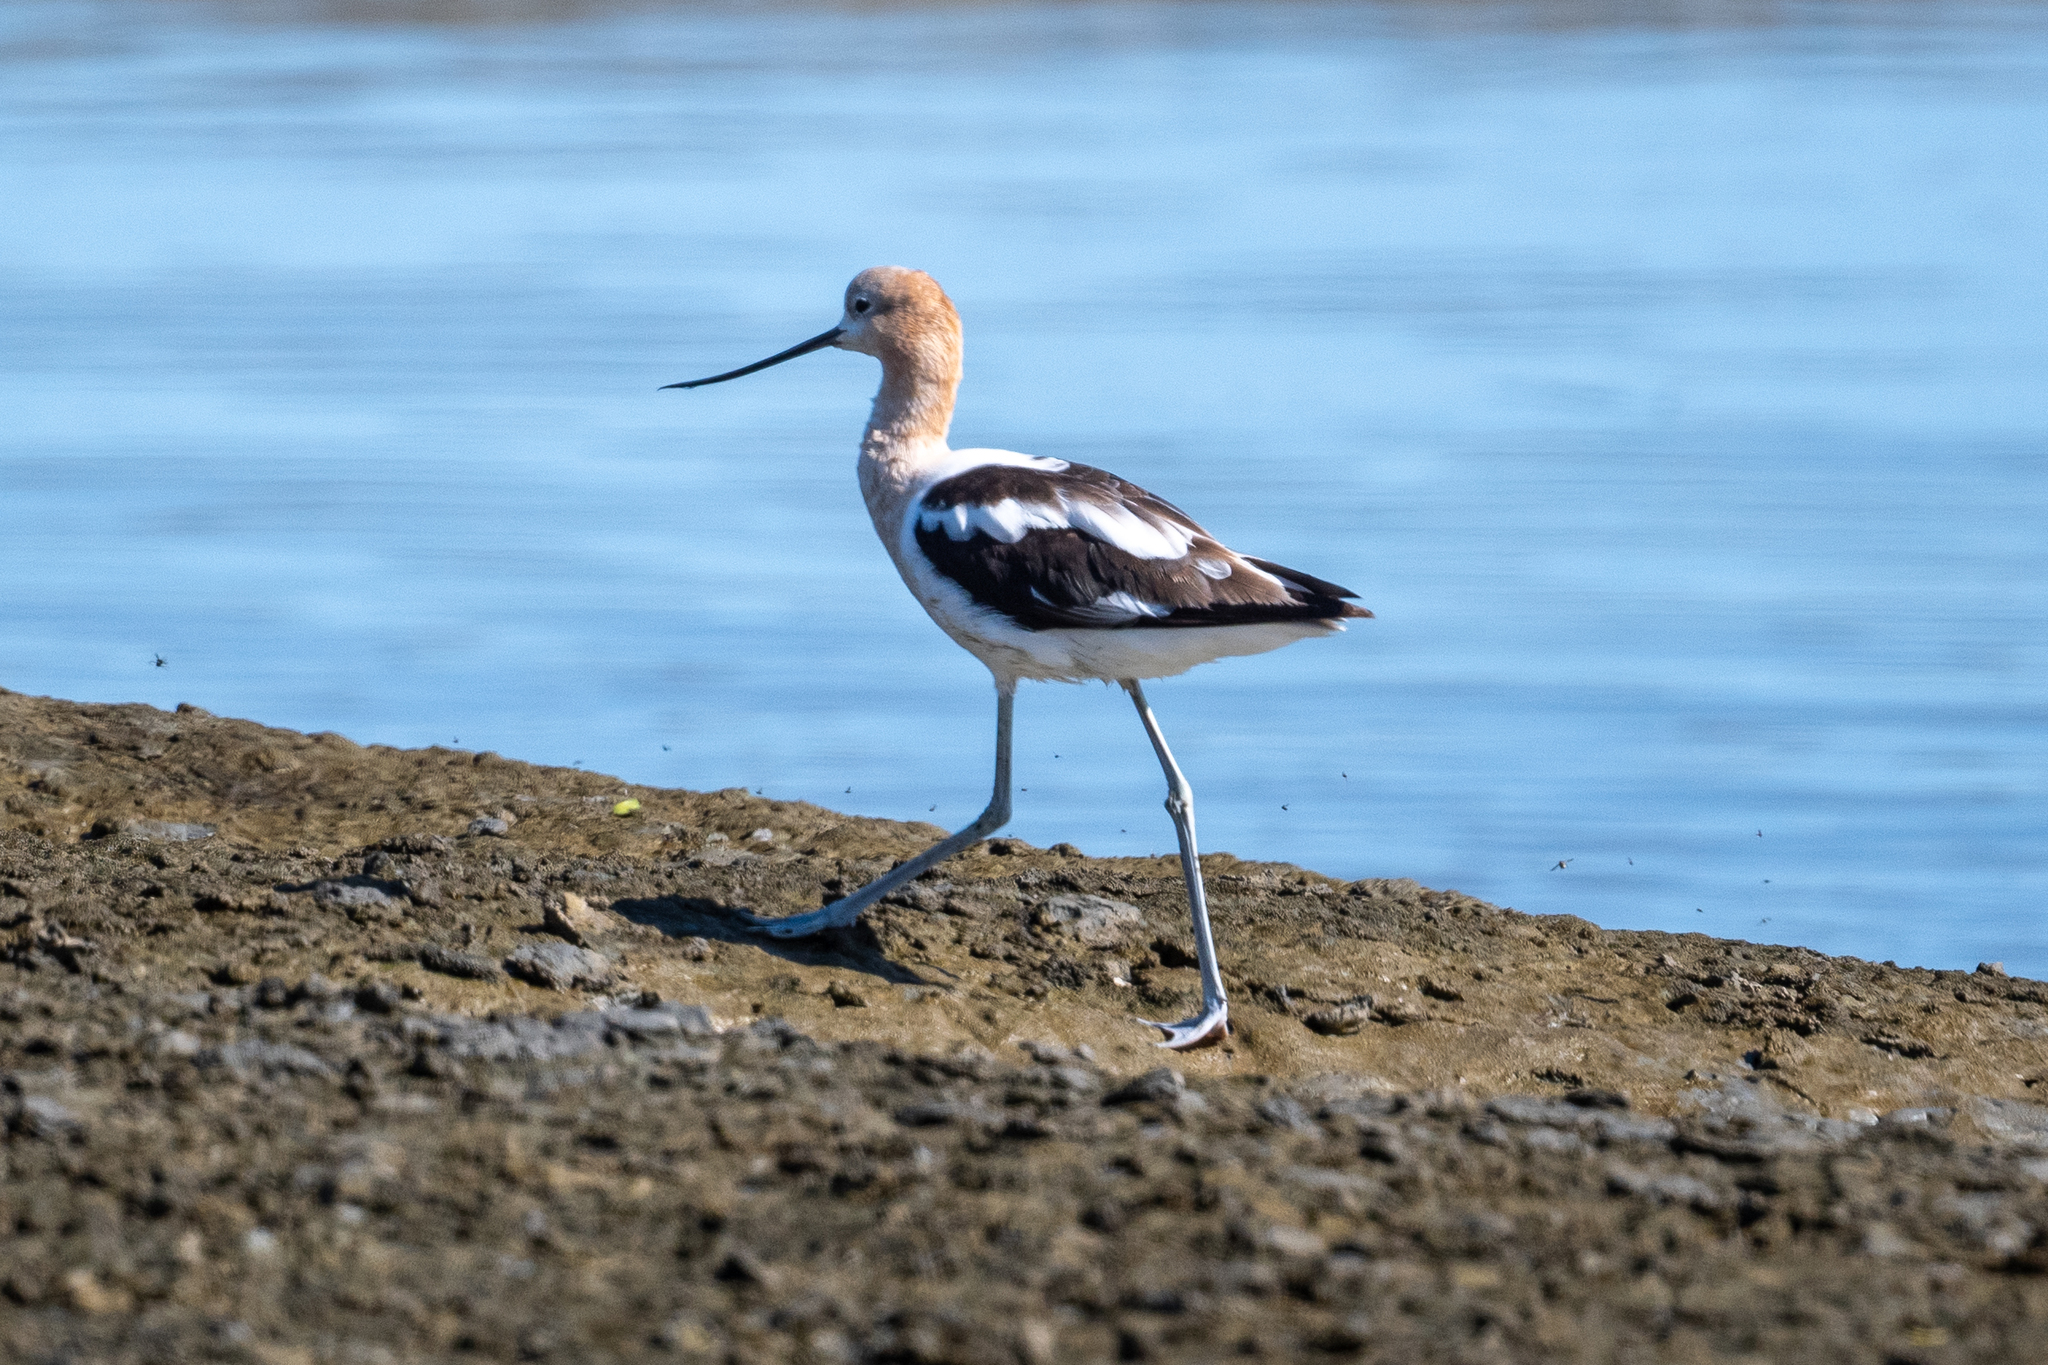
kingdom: Animalia
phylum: Chordata
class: Aves
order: Charadriiformes
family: Recurvirostridae
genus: Recurvirostra
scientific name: Recurvirostra americana
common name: American avocet
